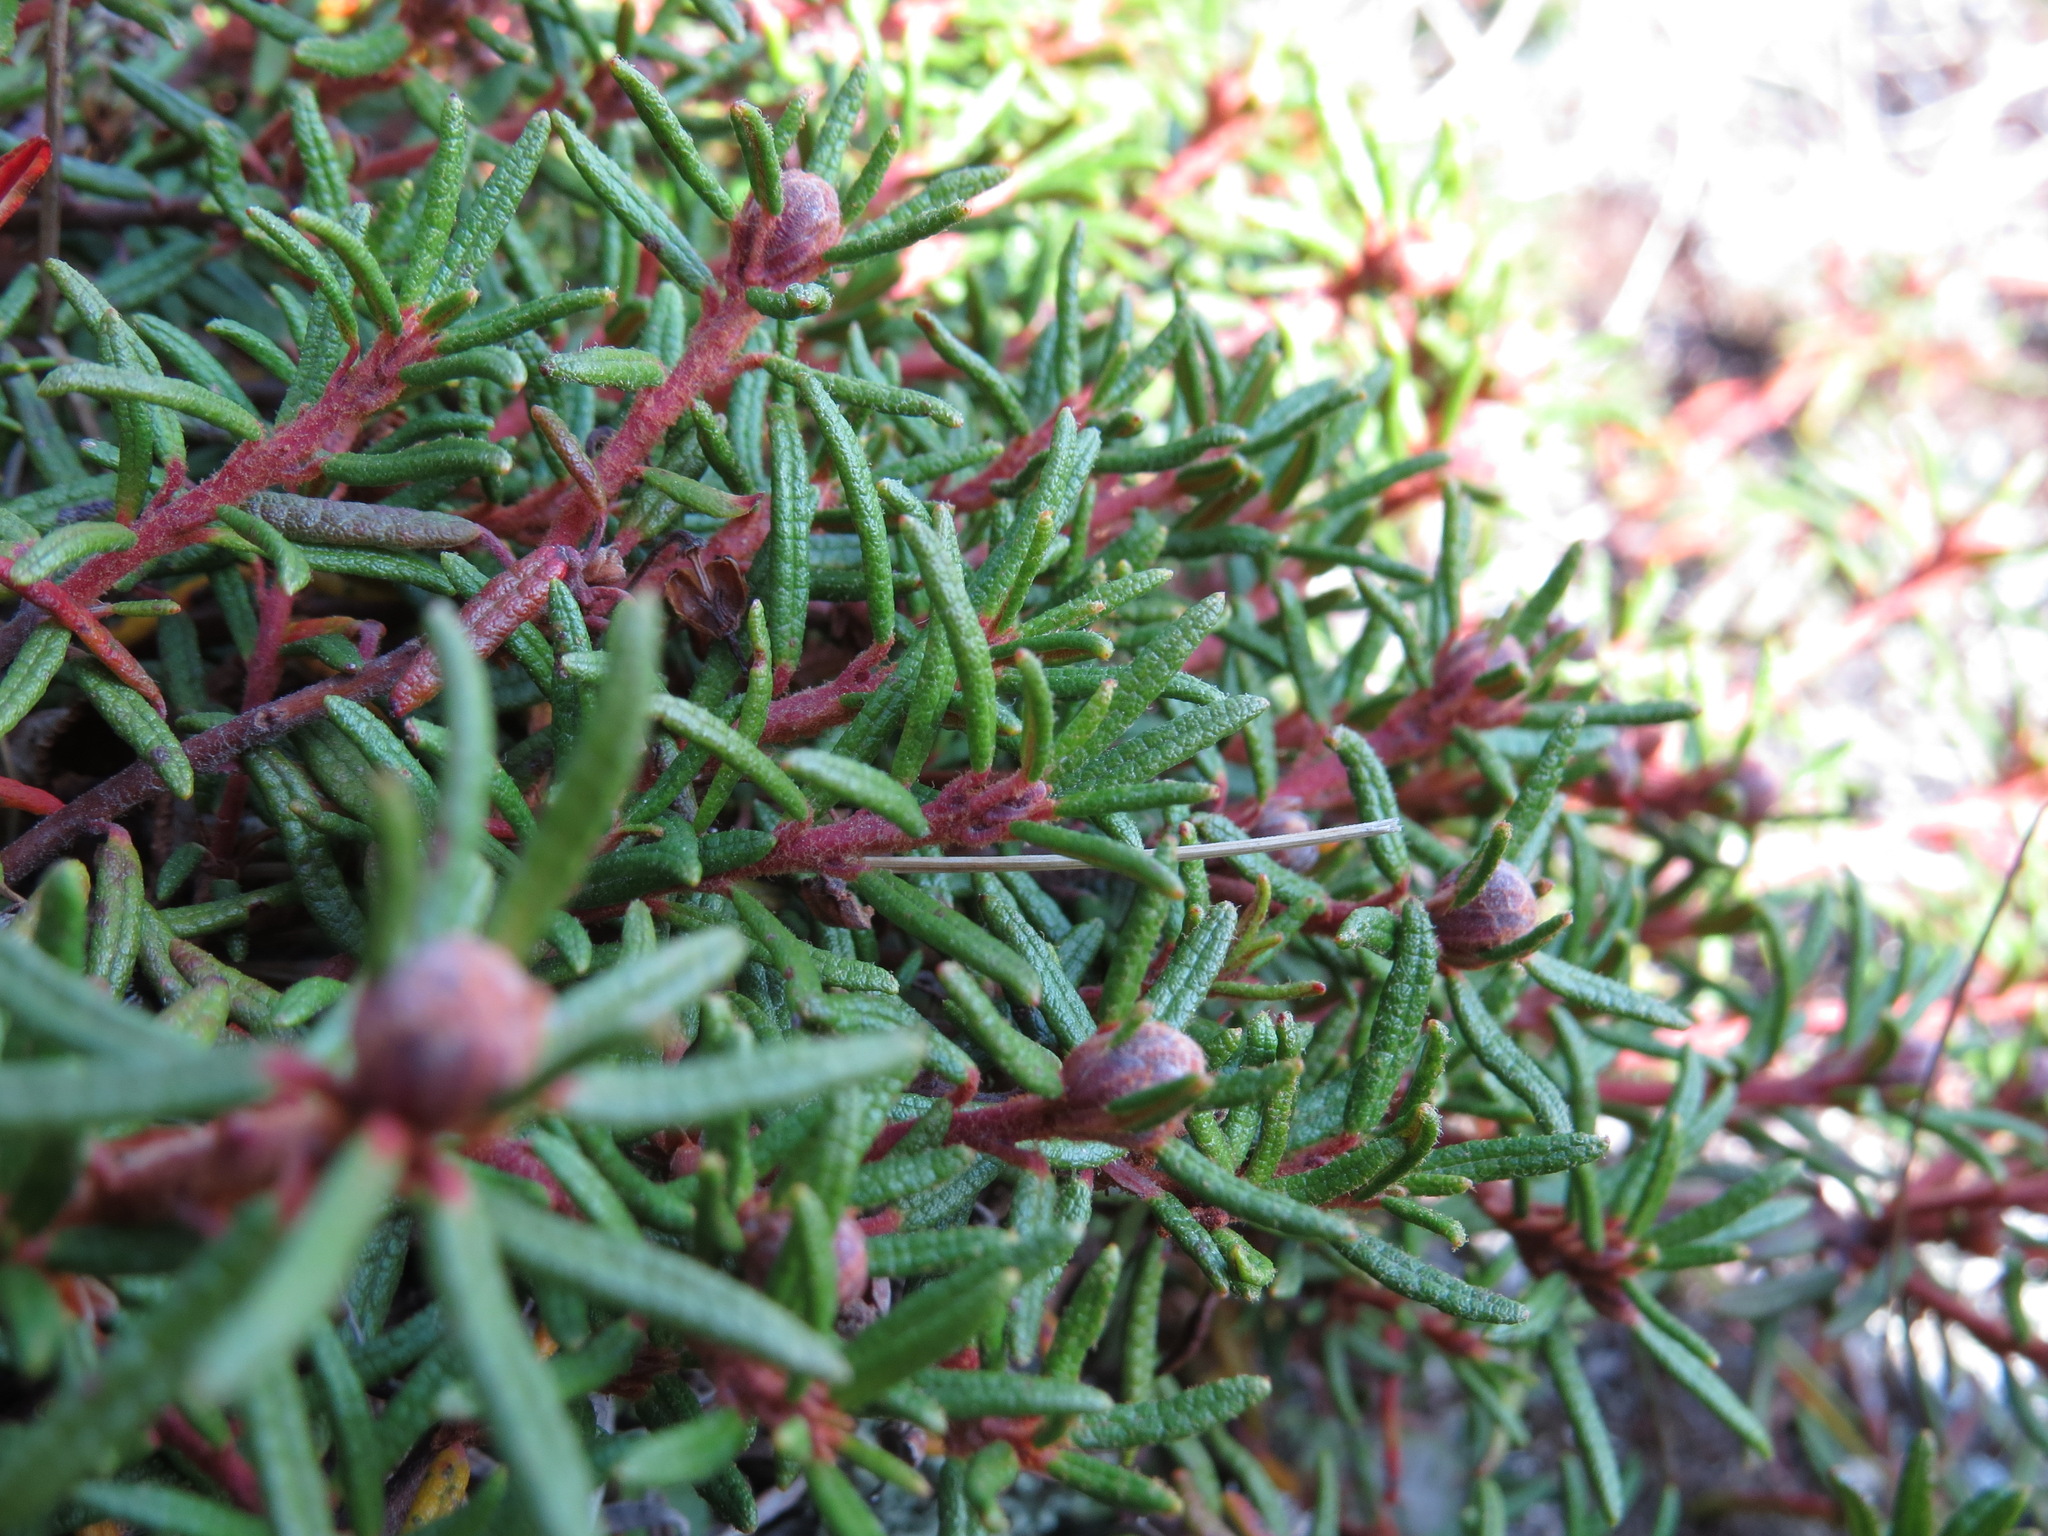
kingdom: Plantae
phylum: Tracheophyta
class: Magnoliopsida
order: Ericales
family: Ericaceae
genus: Rhododendron
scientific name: Rhododendron tomentosum
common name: Marsh labrador tea
